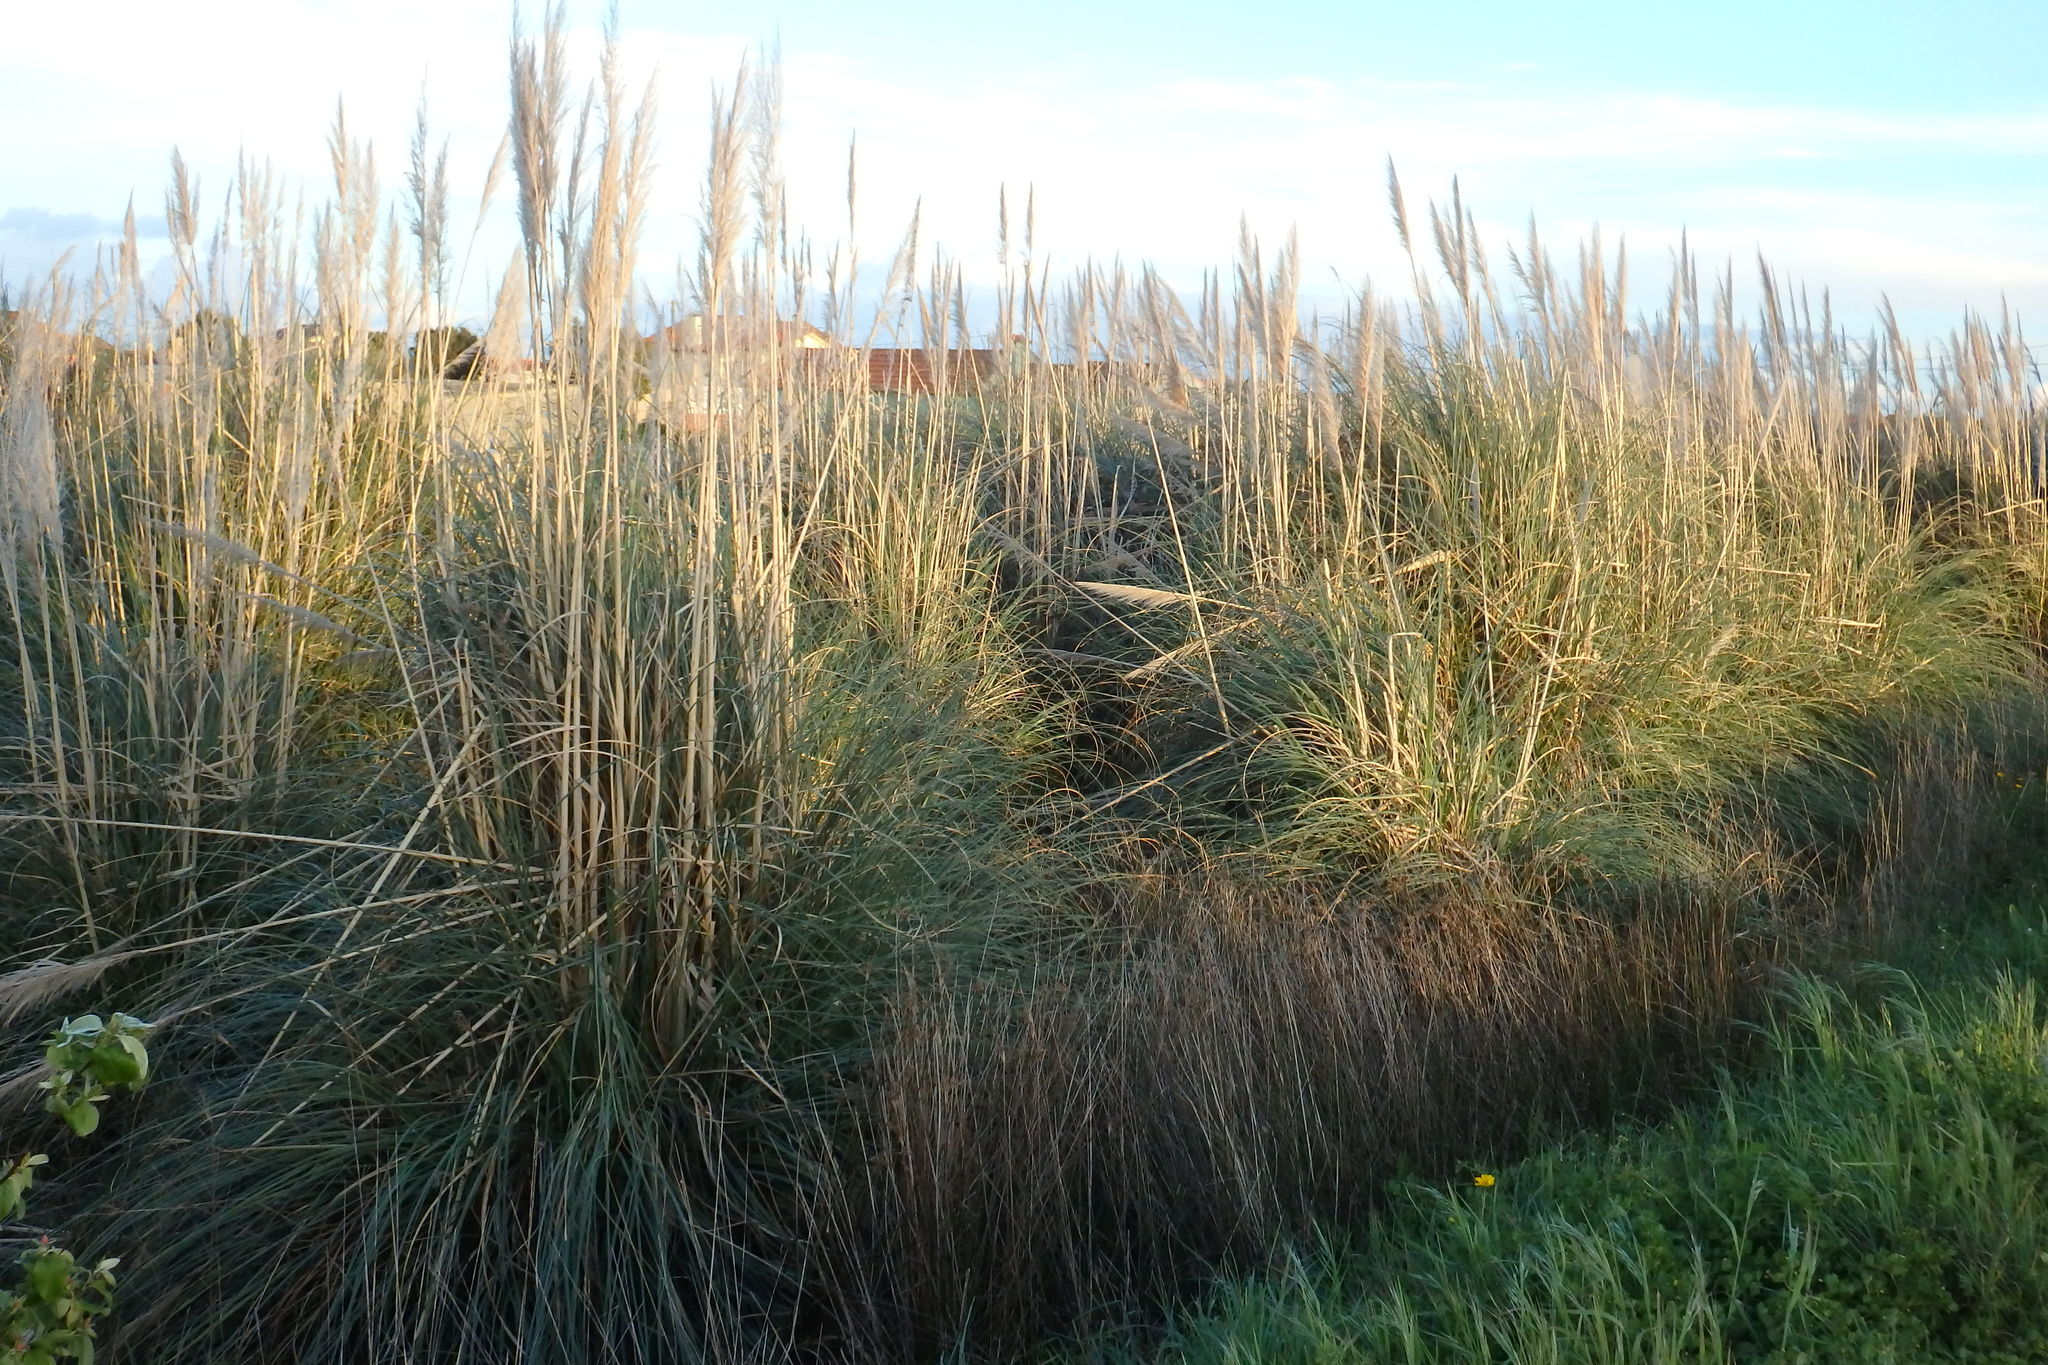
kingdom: Plantae
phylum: Tracheophyta
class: Liliopsida
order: Poales
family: Poaceae
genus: Cortaderia
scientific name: Cortaderia selloana
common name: Uruguayan pampas grass
